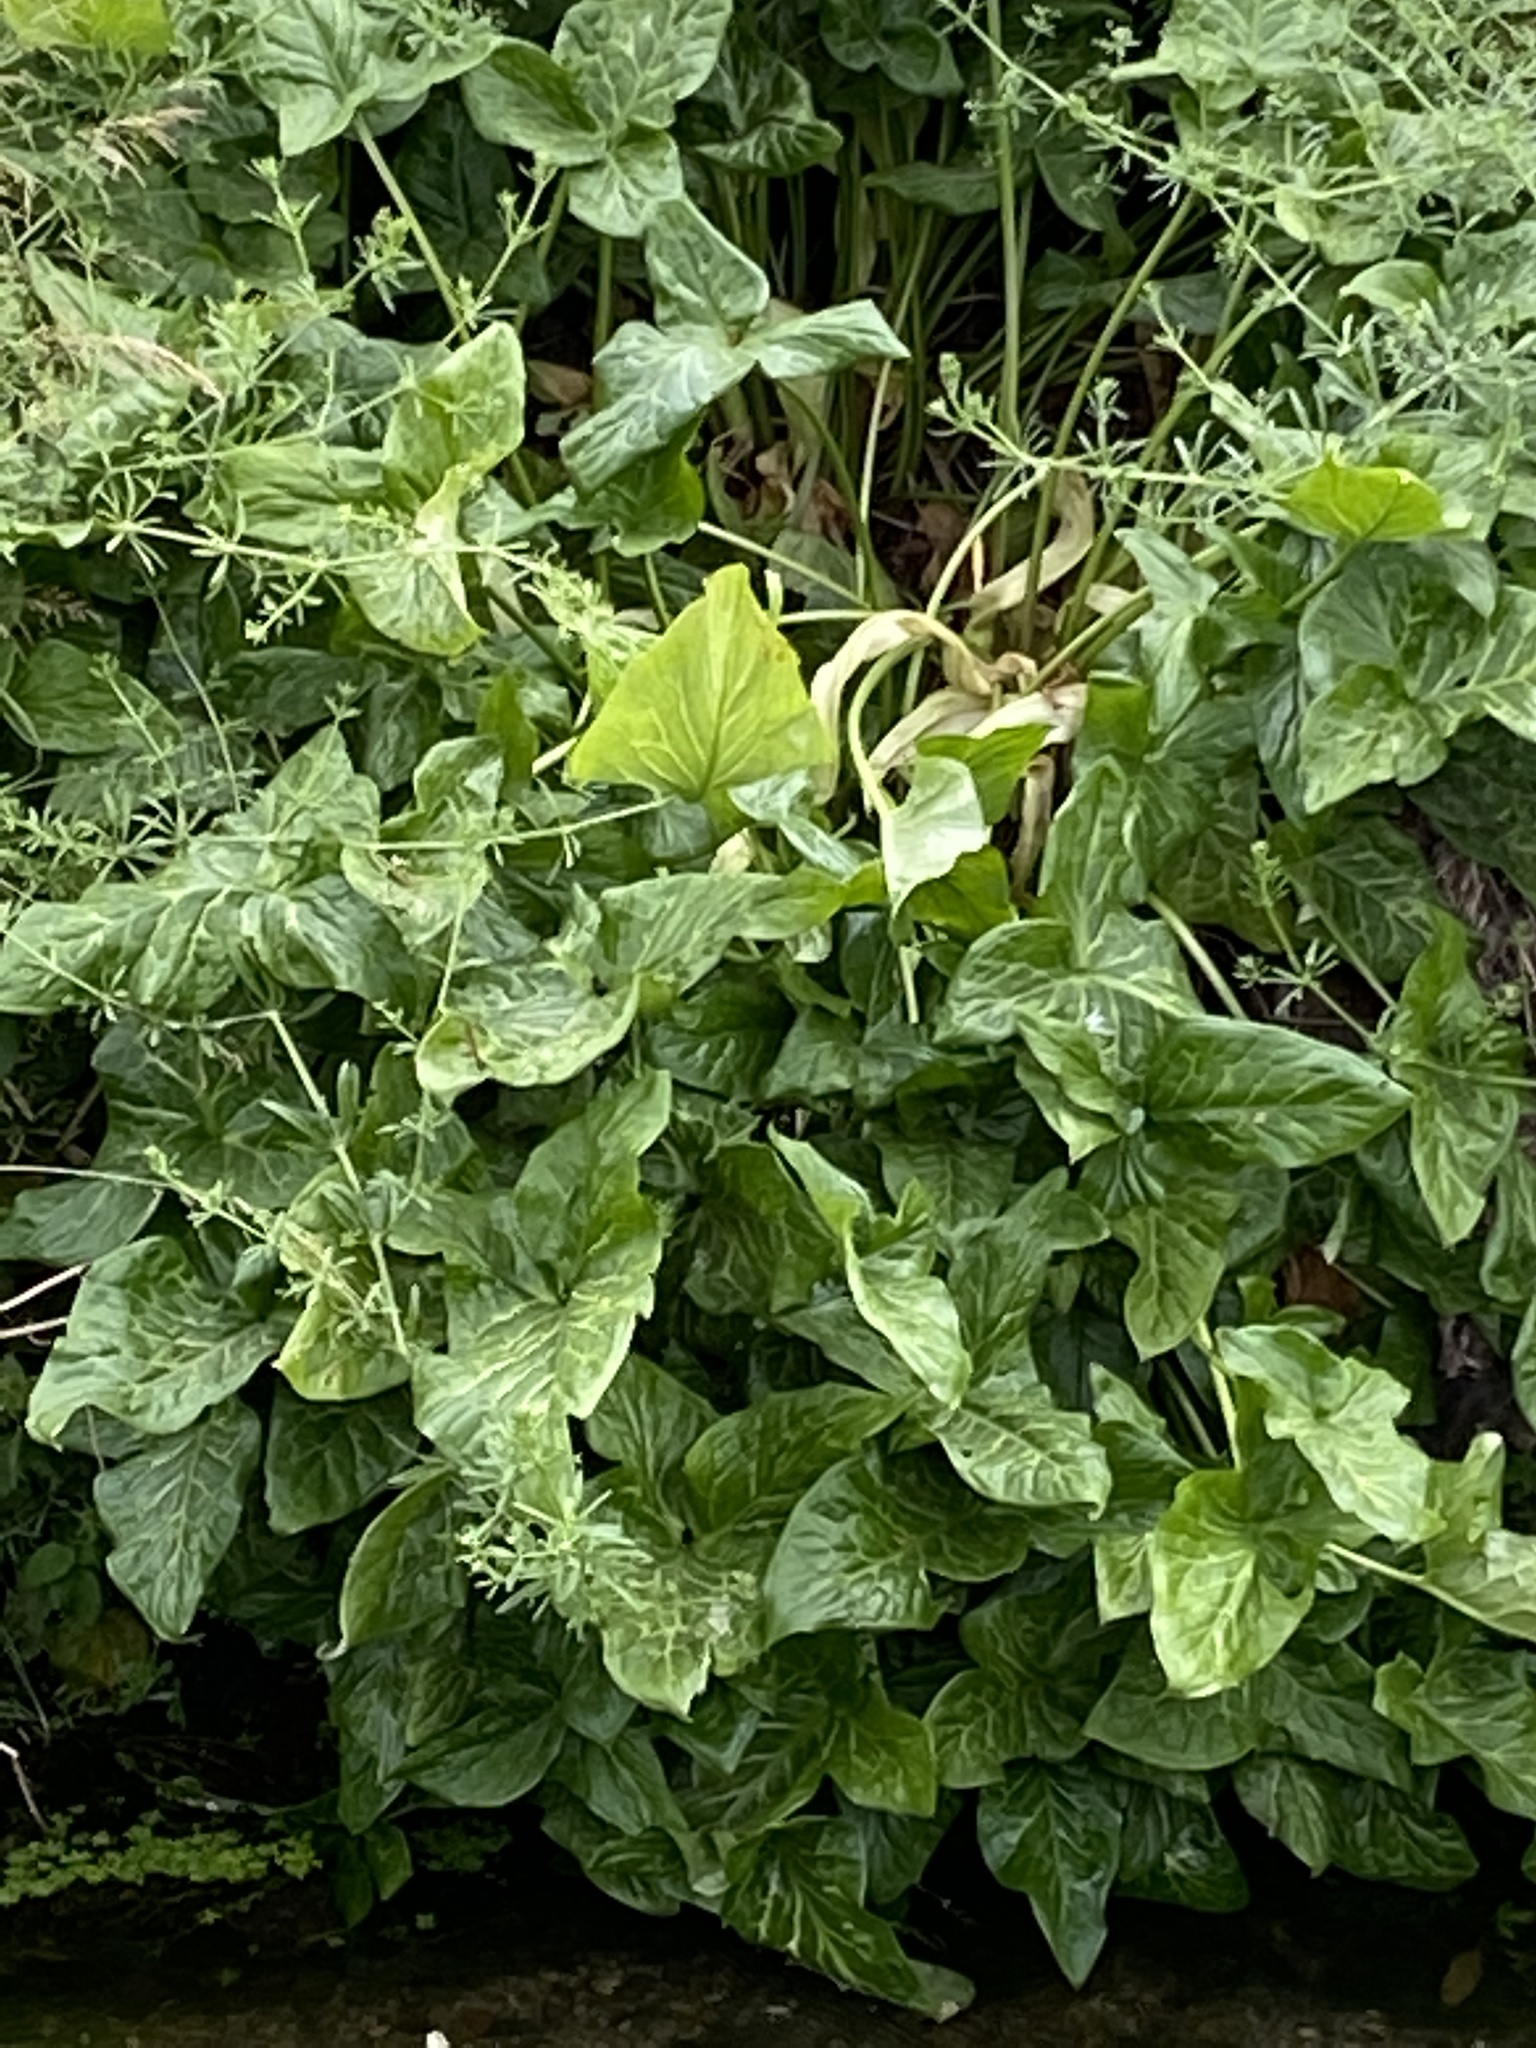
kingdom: Plantae
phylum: Tracheophyta
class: Liliopsida
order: Alismatales
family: Araceae
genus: Arum
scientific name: Arum italicum
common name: Italian lords-and-ladies
